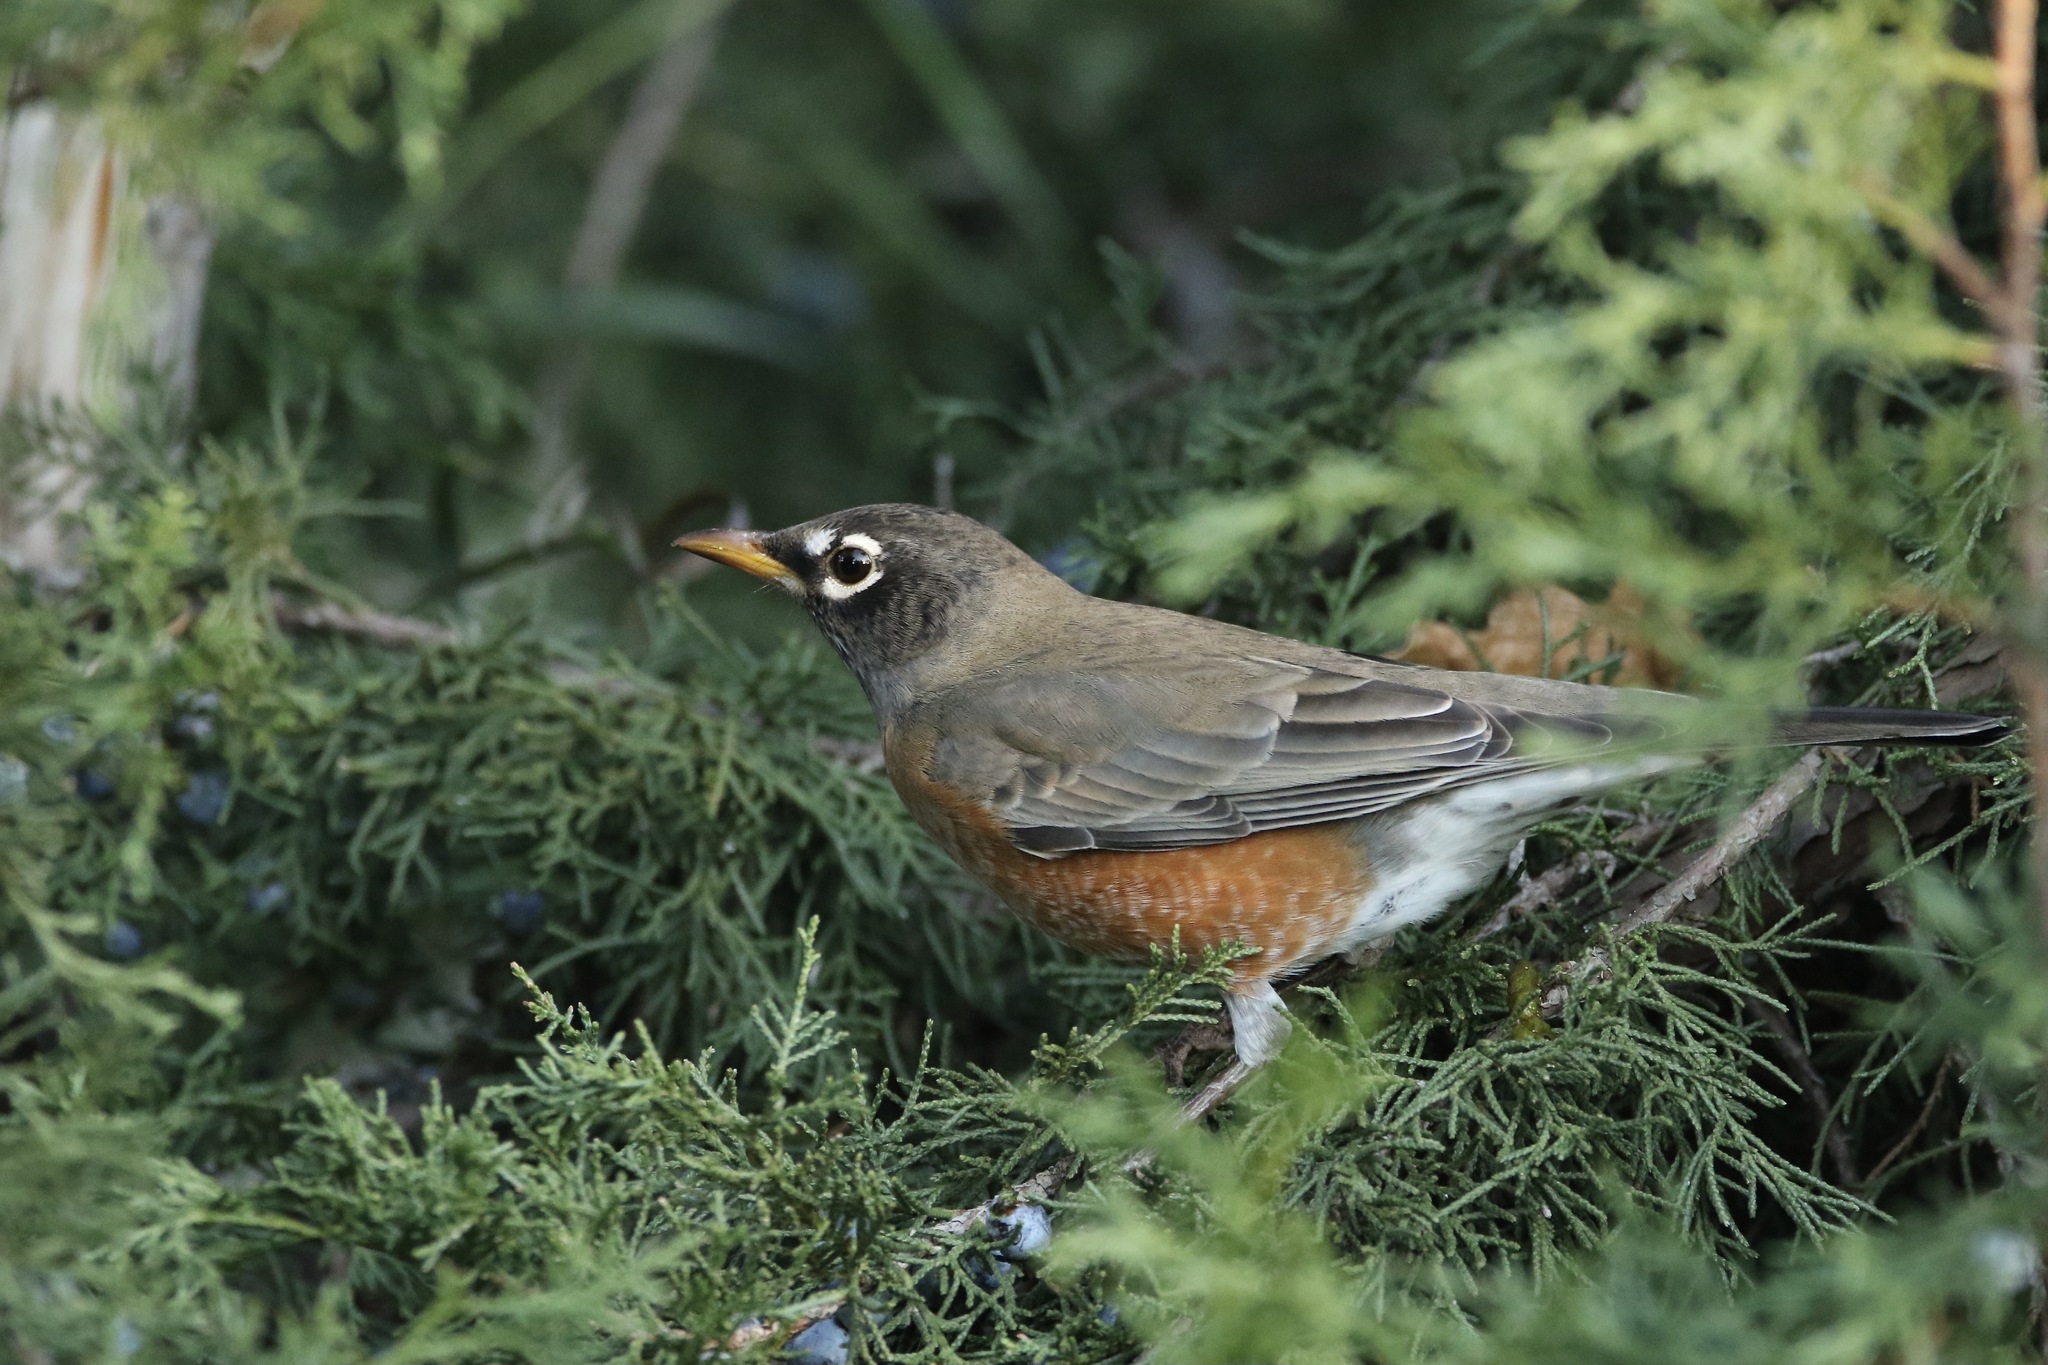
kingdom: Animalia
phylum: Chordata
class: Aves
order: Passeriformes
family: Turdidae
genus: Turdus
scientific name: Turdus migratorius
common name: American robin
